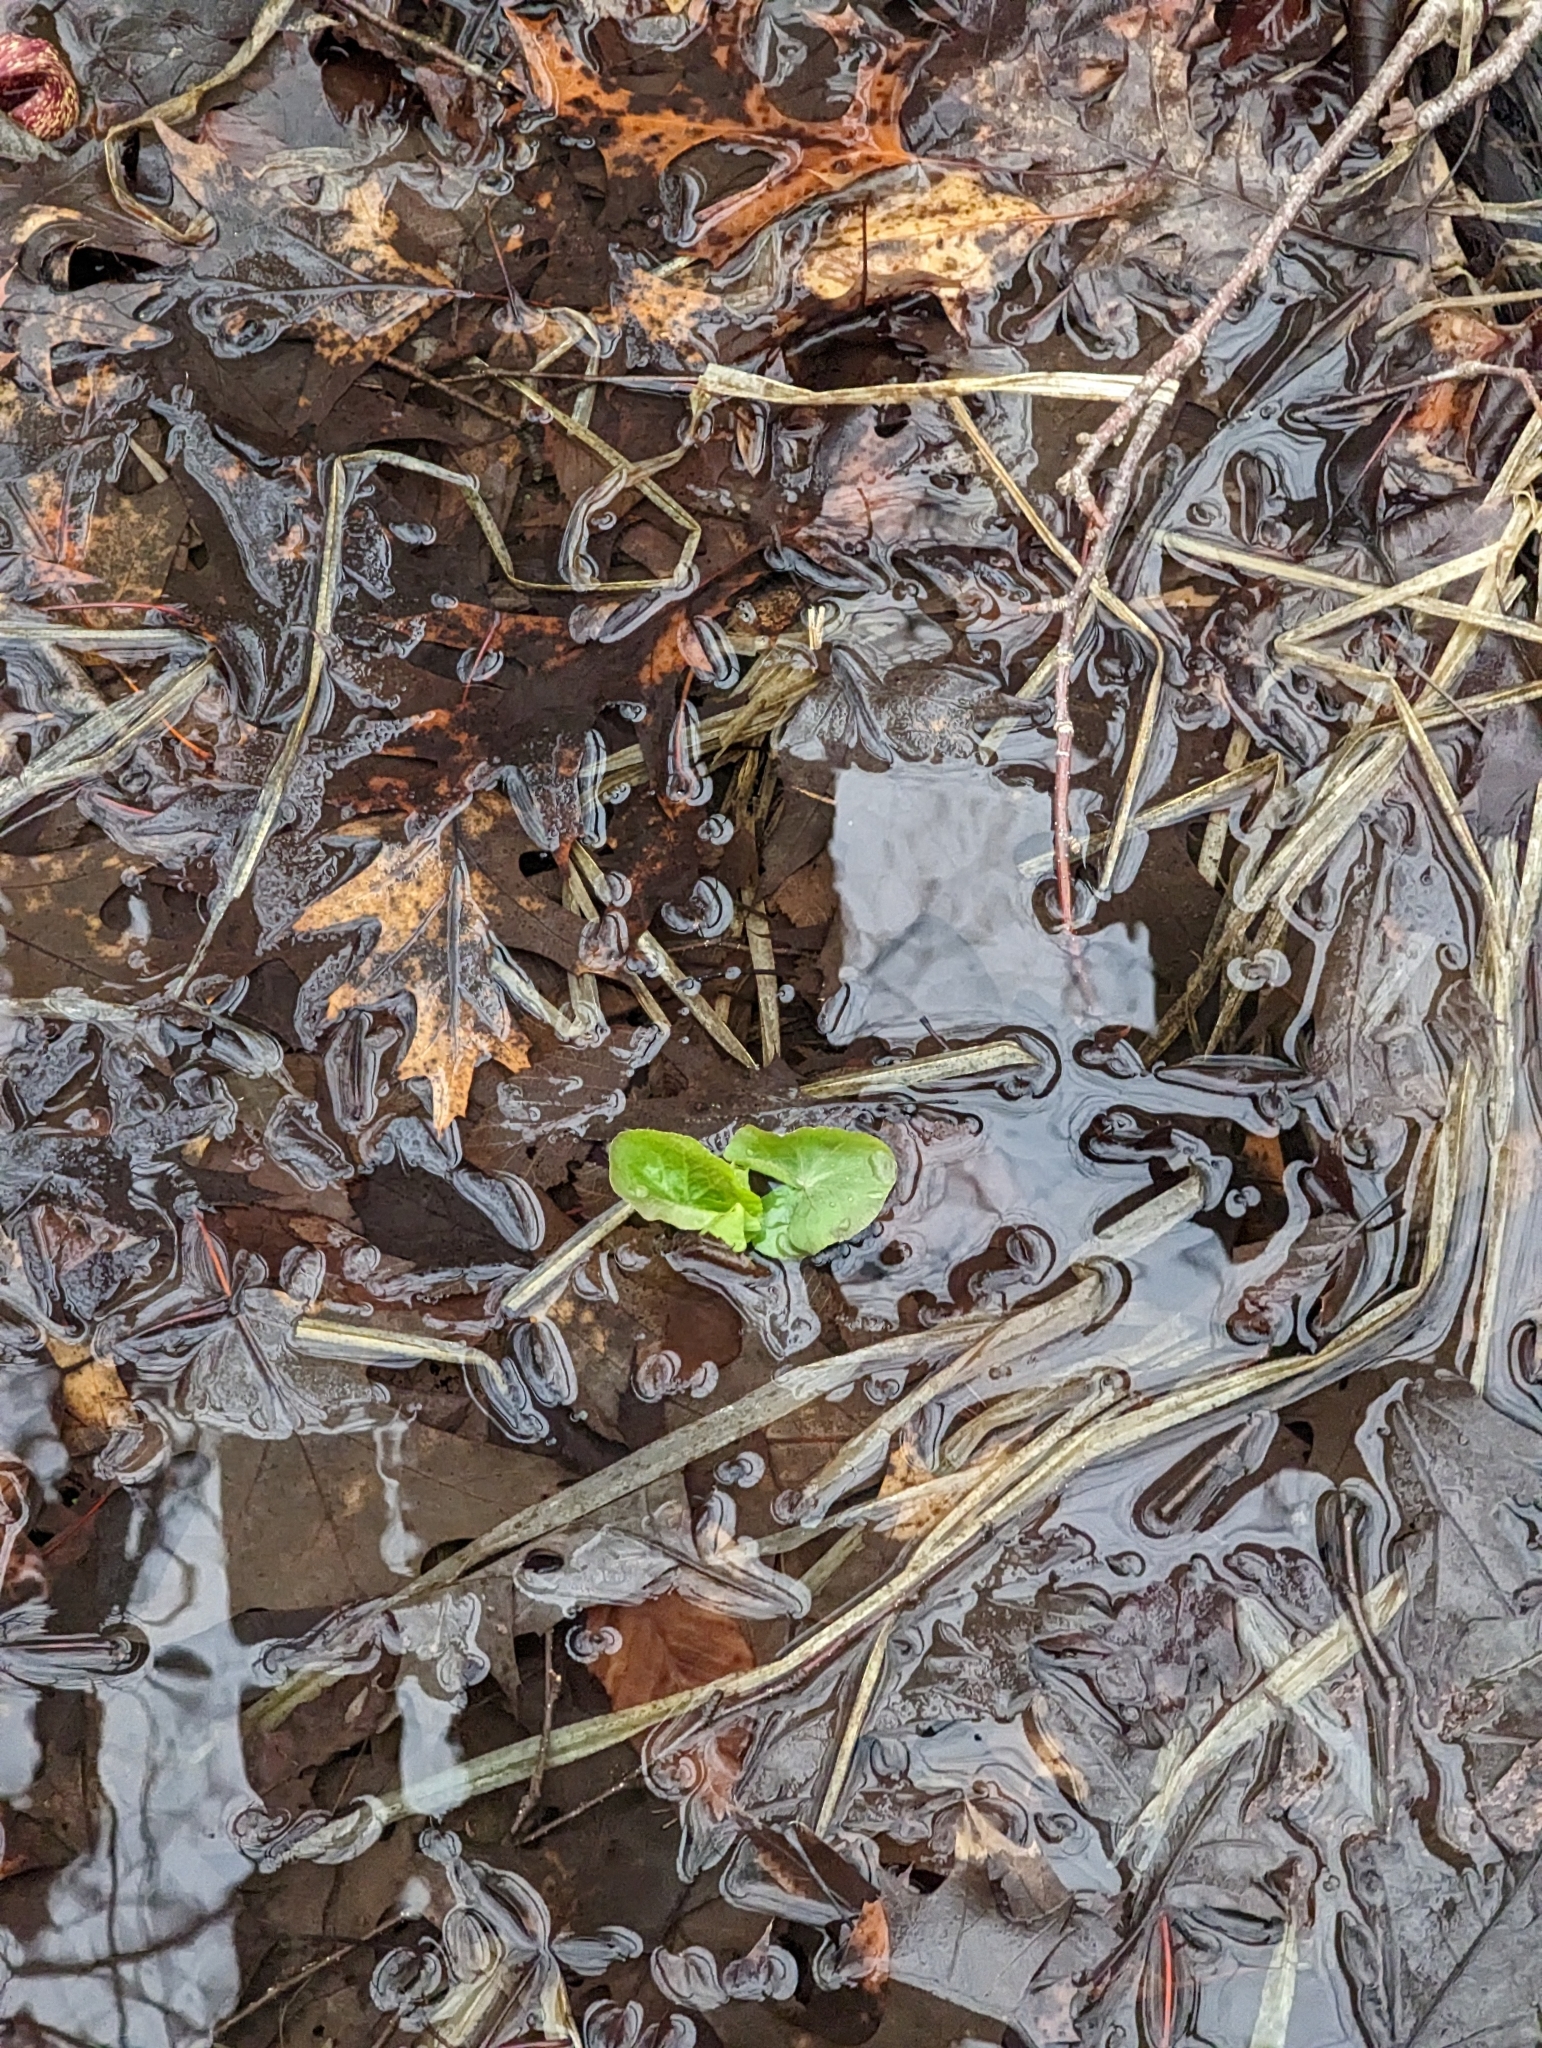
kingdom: Plantae
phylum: Tracheophyta
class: Magnoliopsida
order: Ranunculales
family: Ranunculaceae
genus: Caltha
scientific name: Caltha palustris
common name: Marsh marigold
